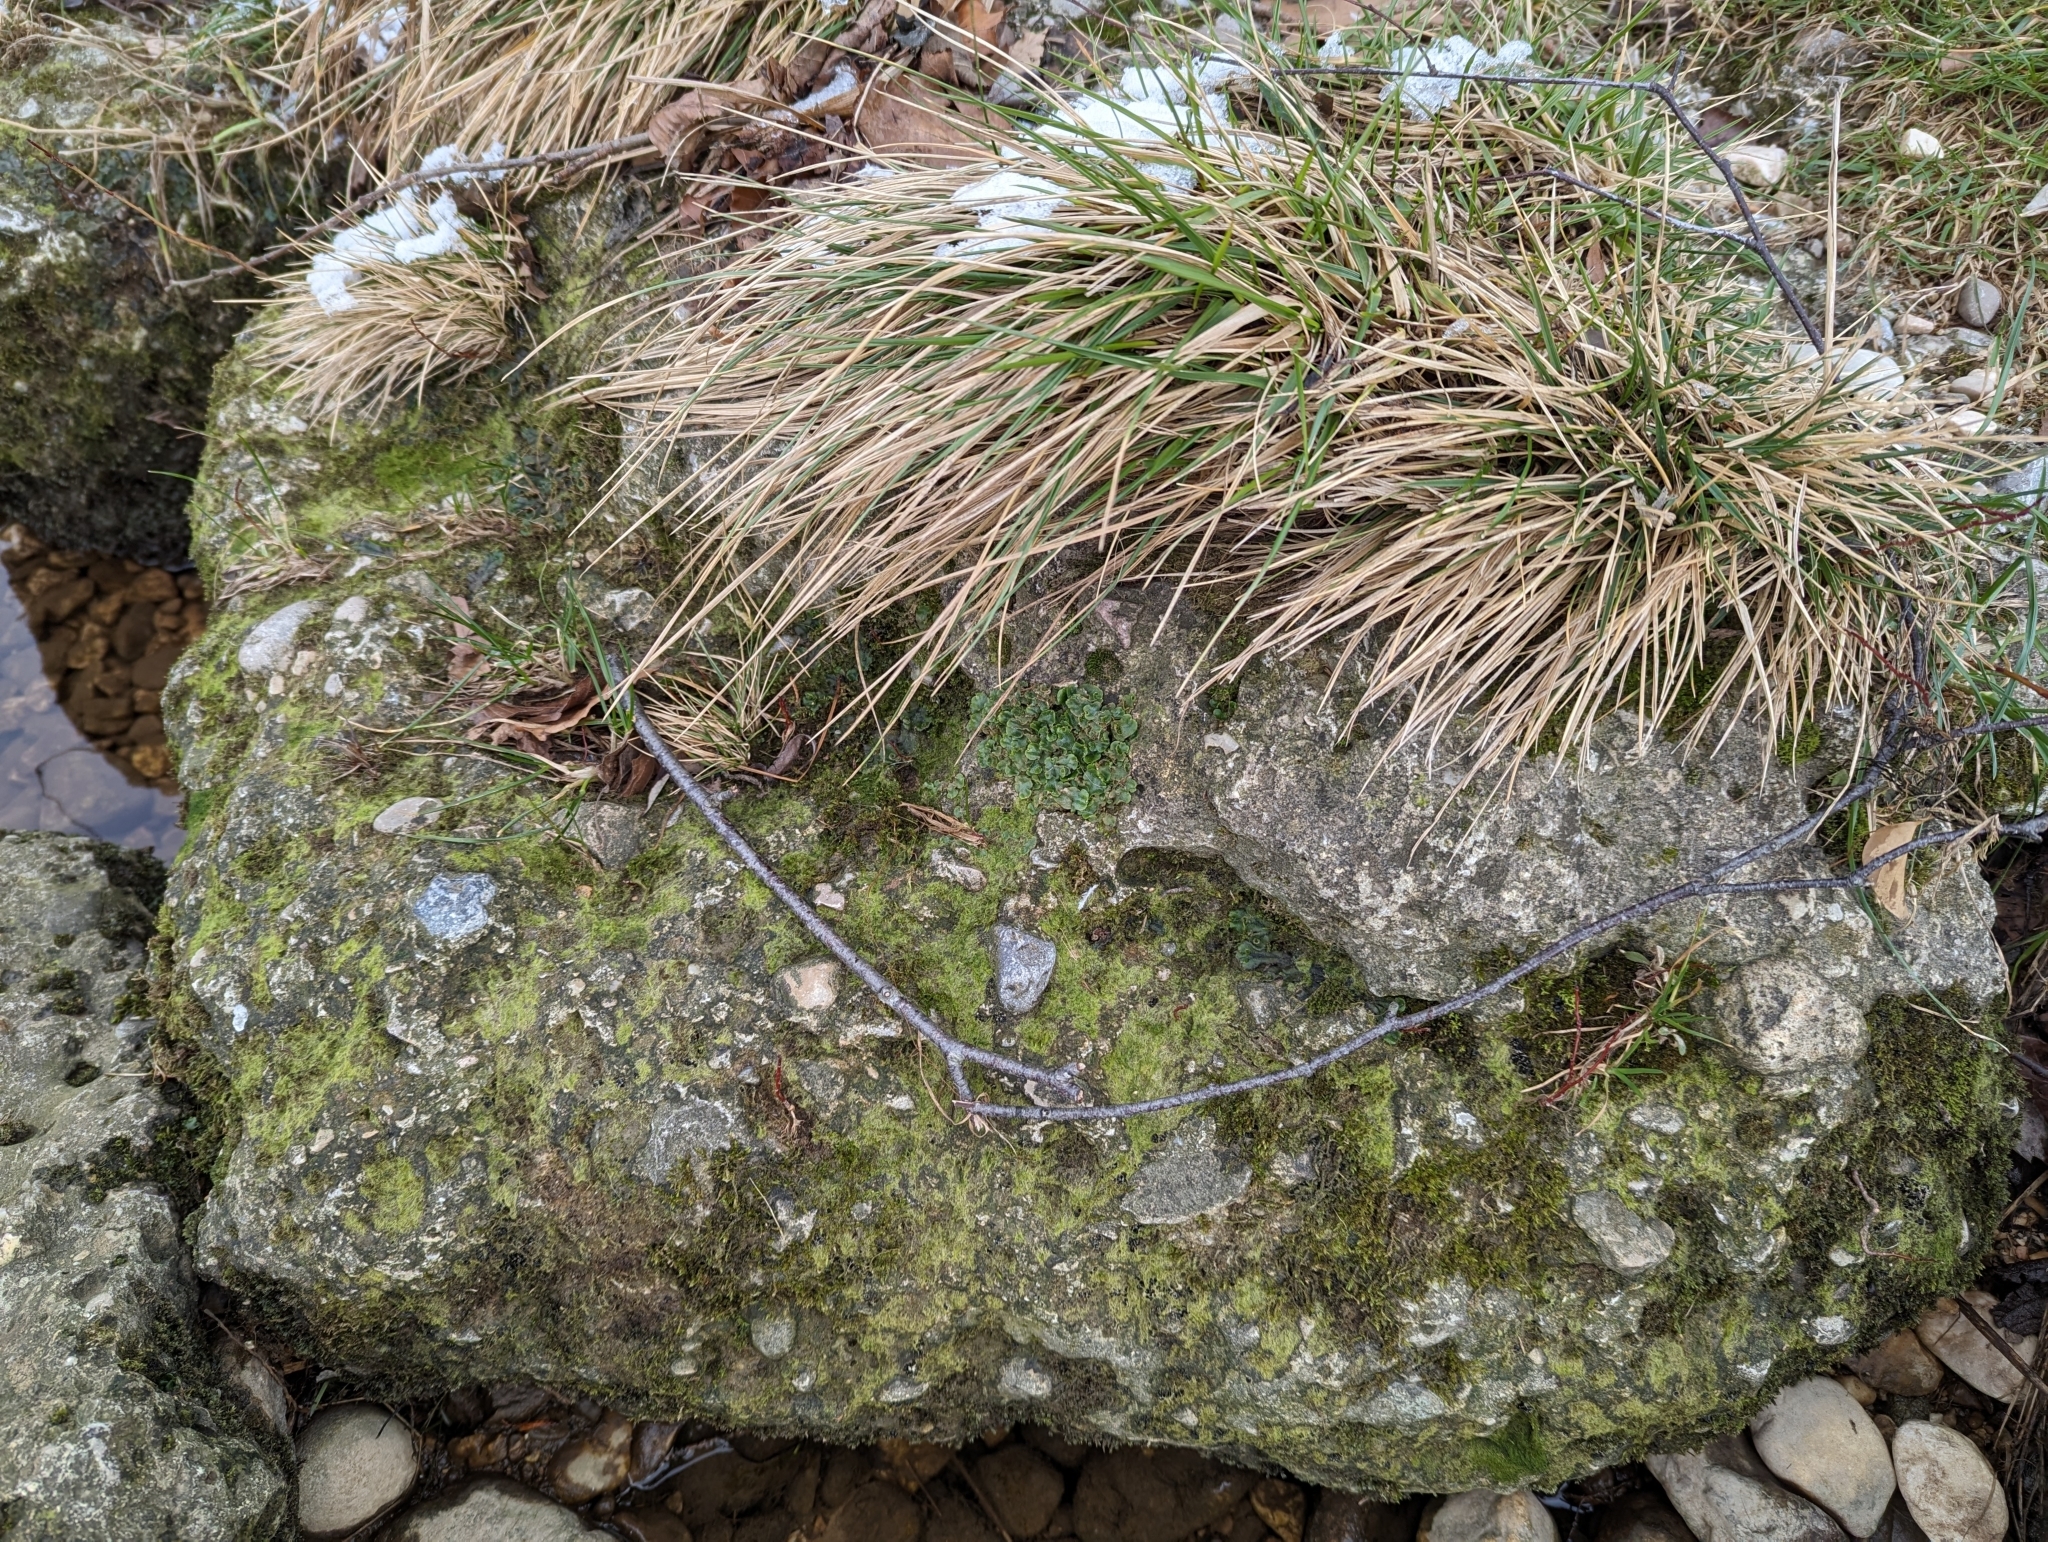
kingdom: Plantae
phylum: Marchantiophyta
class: Marchantiopsida
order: Lunulariales
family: Lunulariaceae
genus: Lunularia
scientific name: Lunularia cruciata
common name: Crescent-cup liverwort
